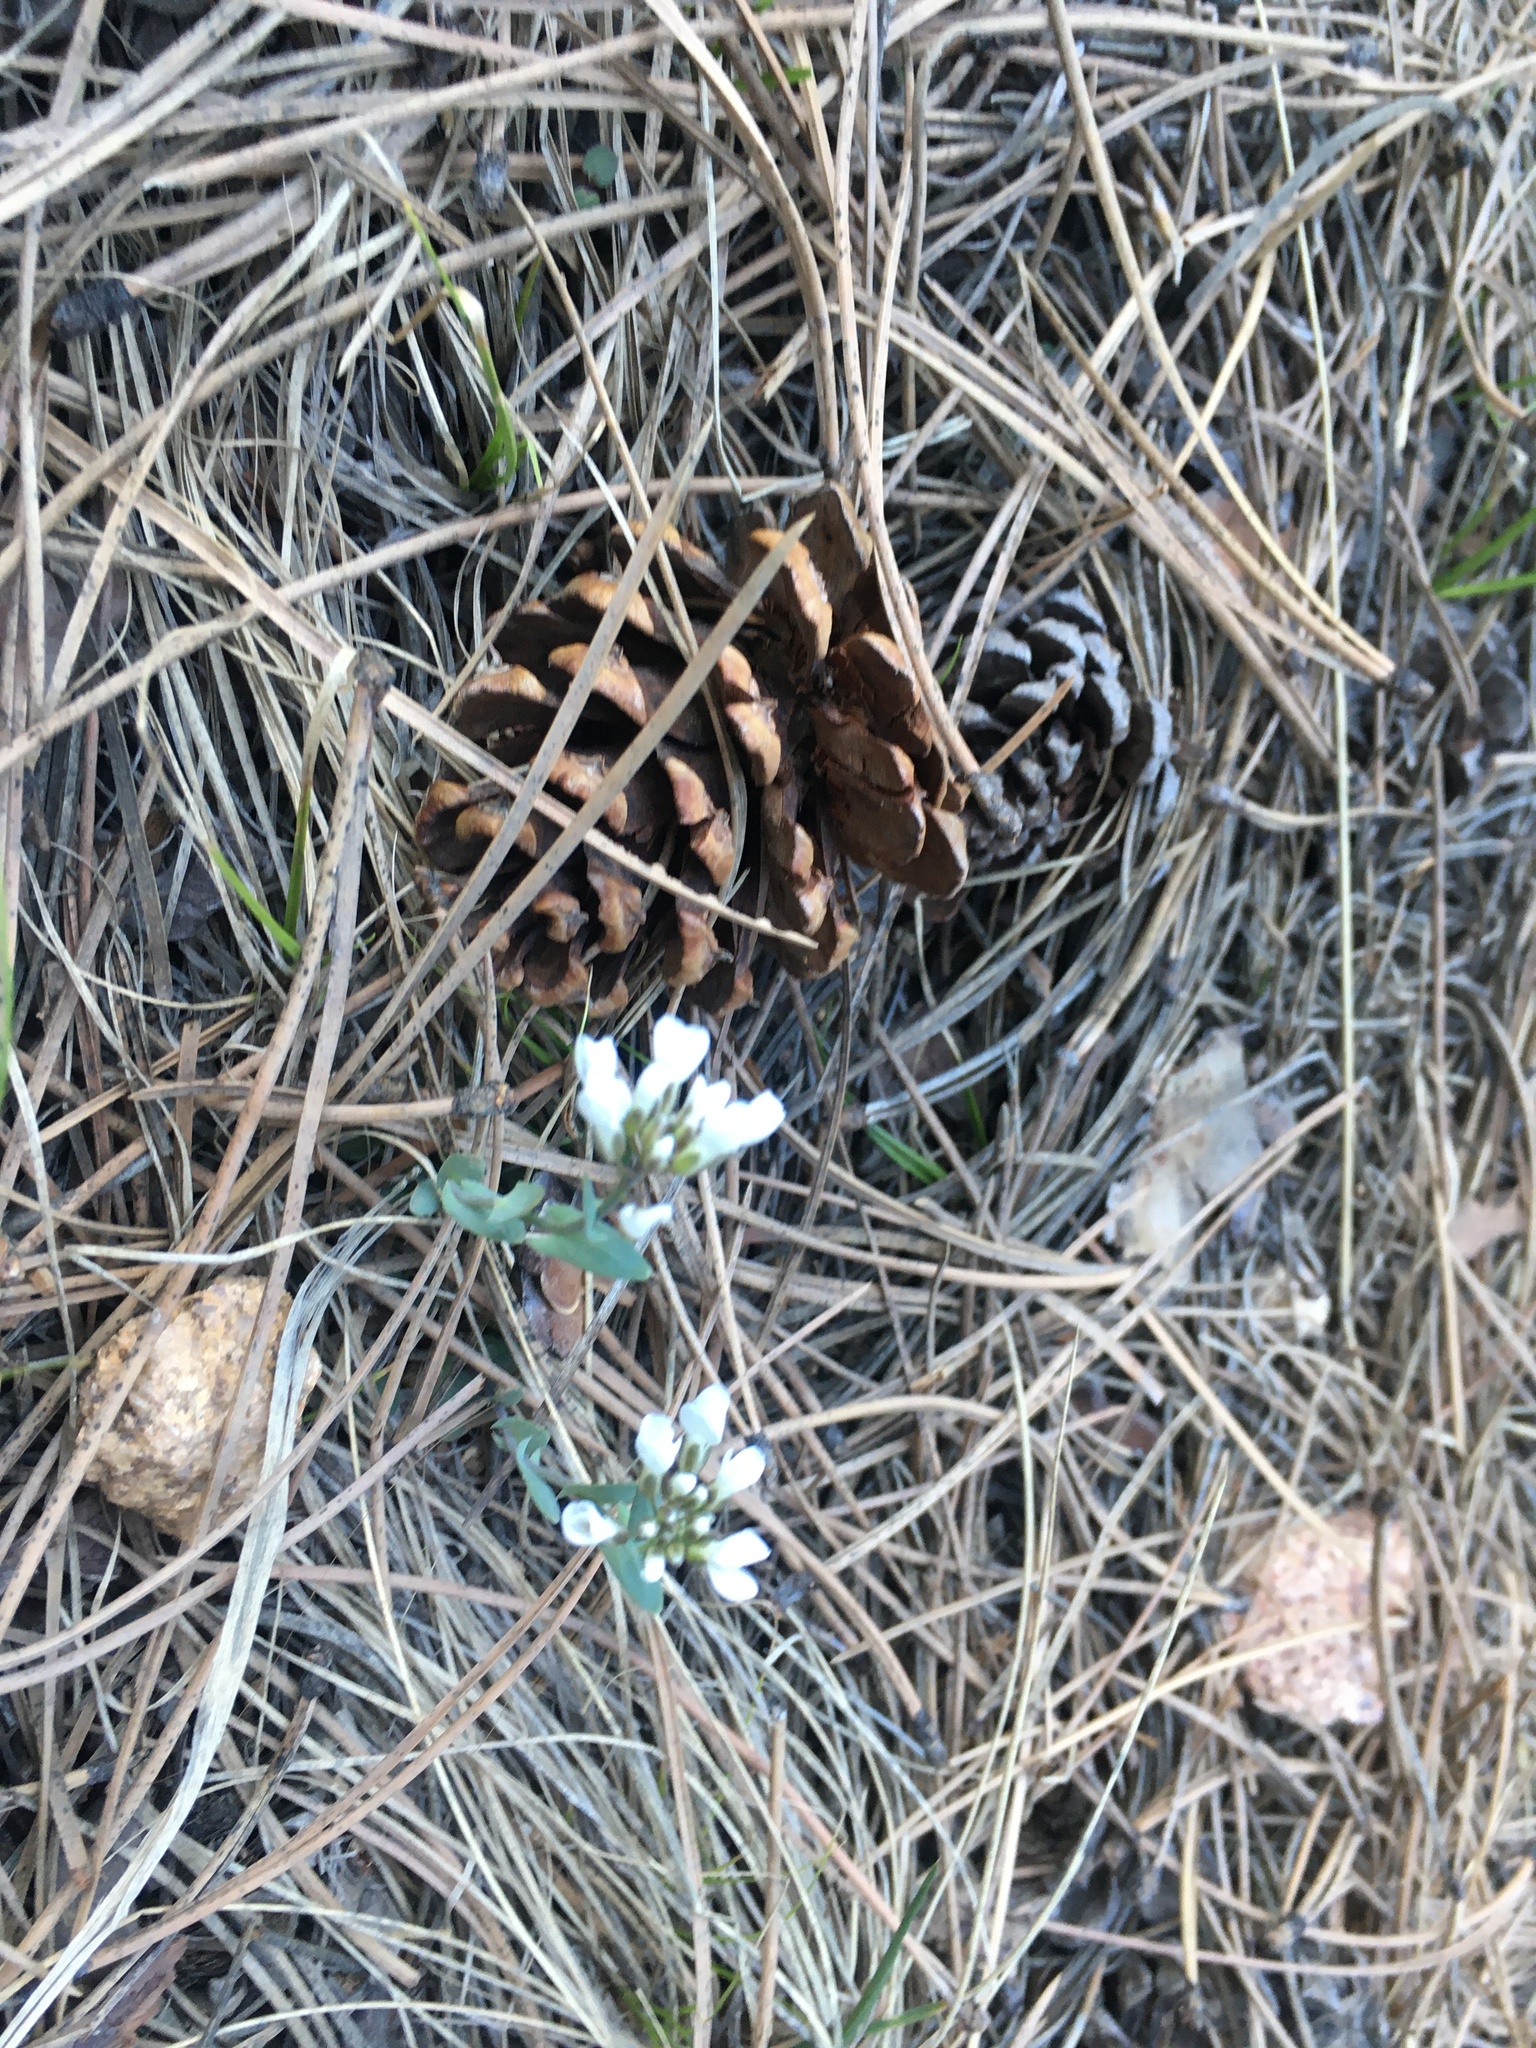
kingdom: Plantae
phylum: Tracheophyta
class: Magnoliopsida
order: Brassicales
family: Brassicaceae
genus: Noccaea
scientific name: Noccaea fendleri
